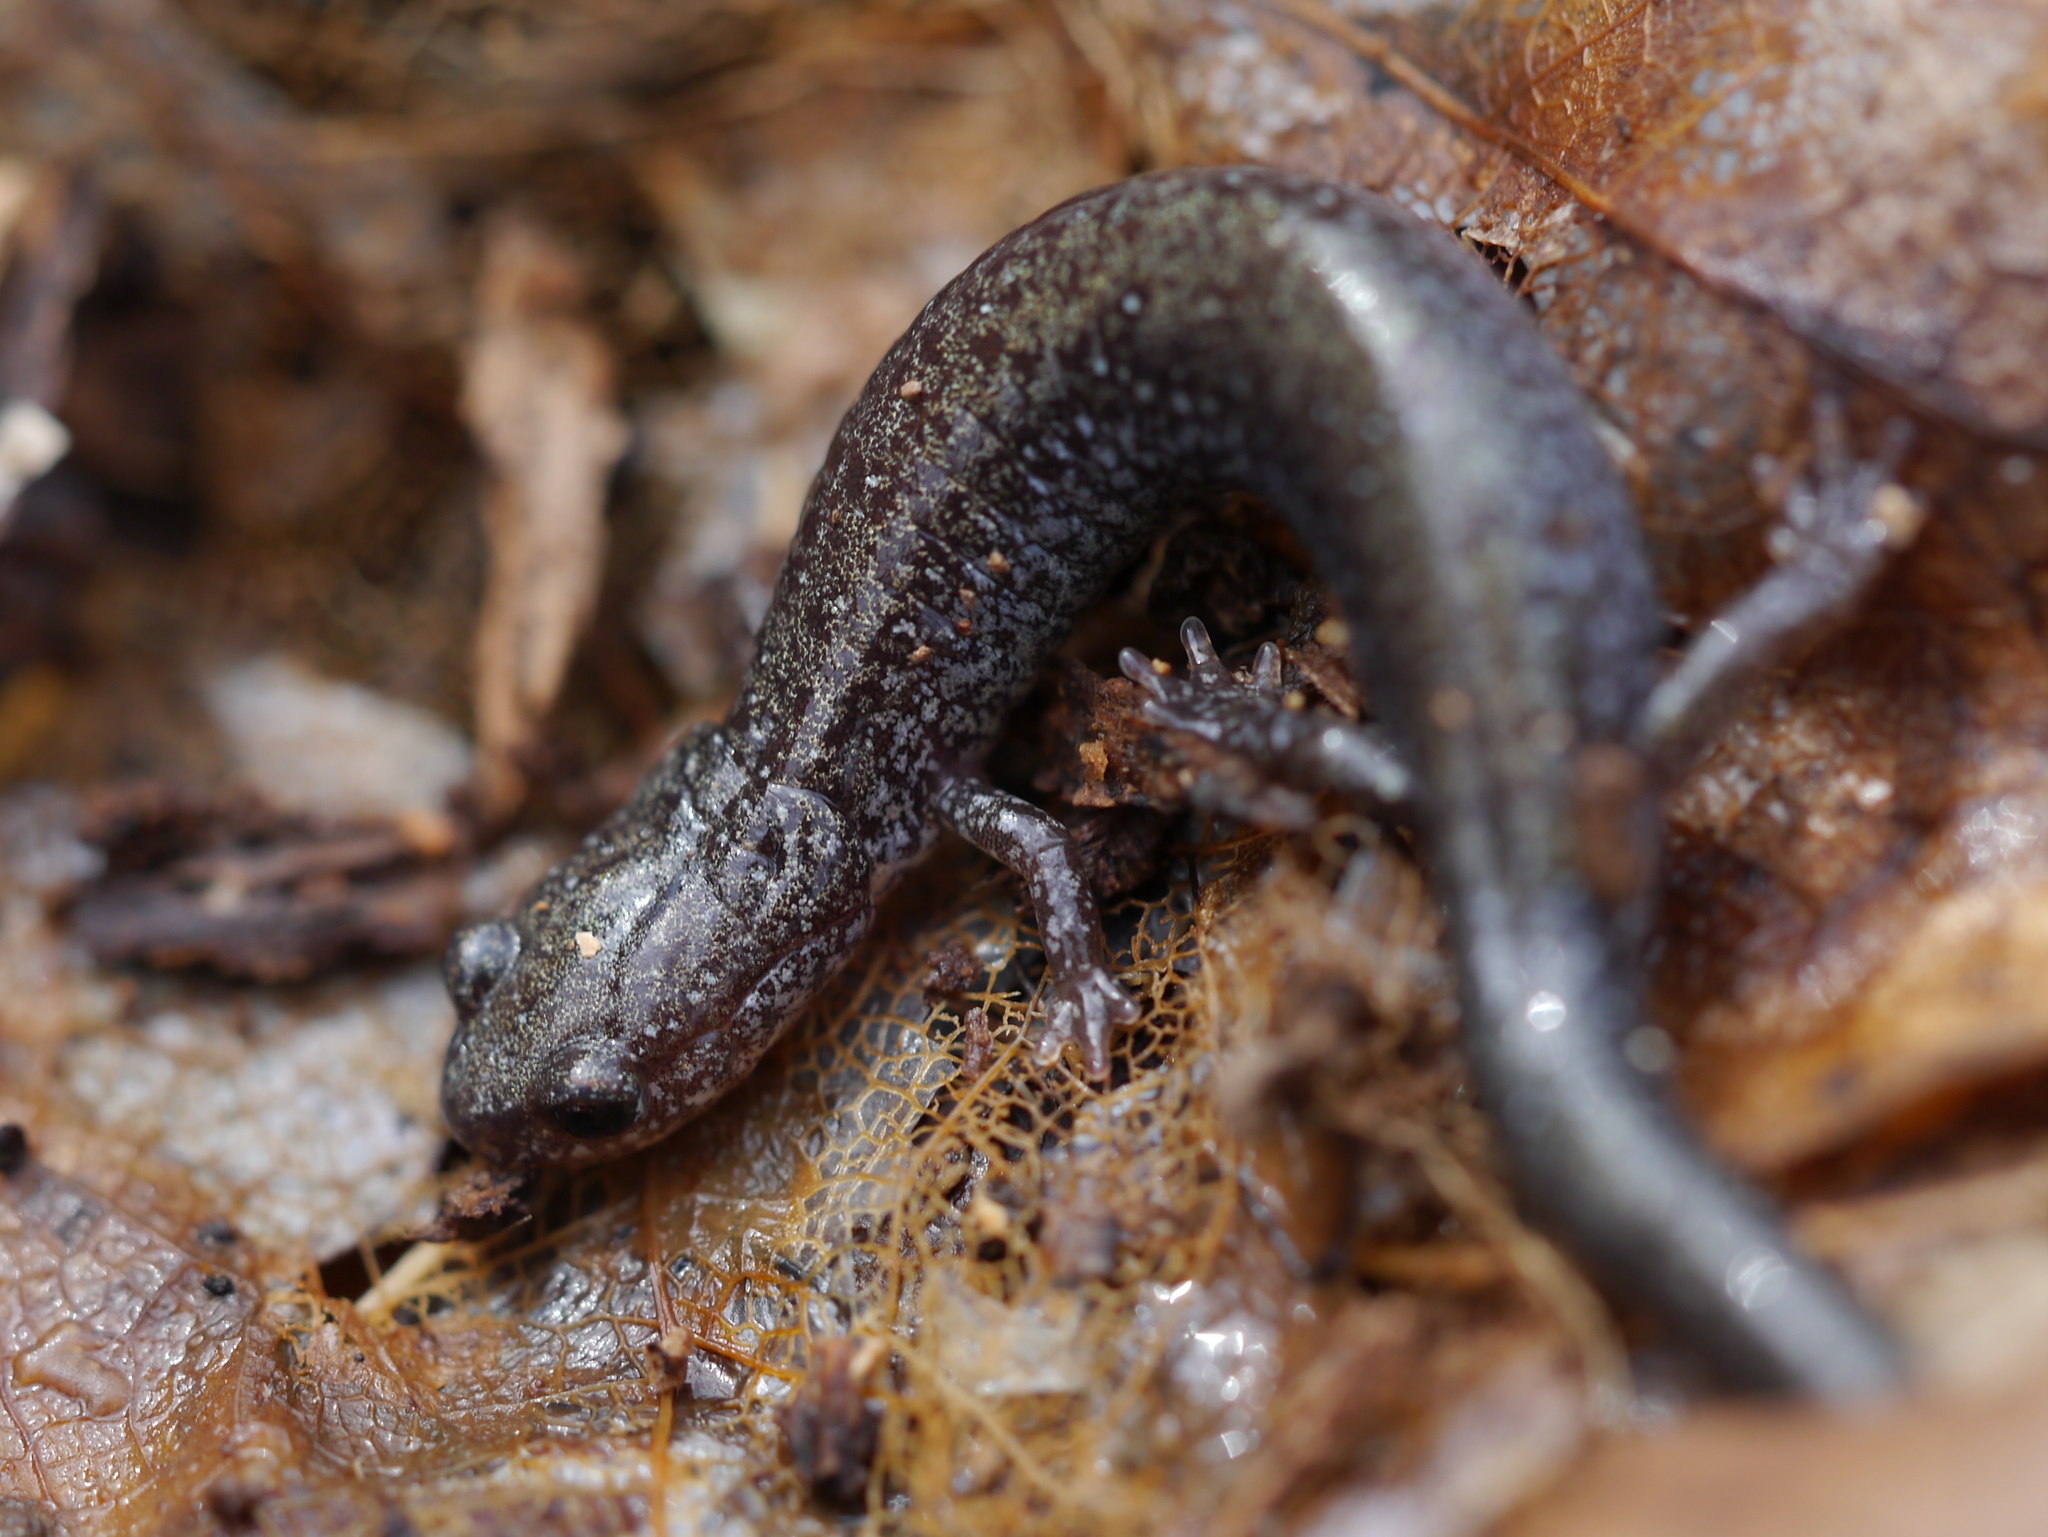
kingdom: Animalia
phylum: Chordata
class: Amphibia
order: Caudata
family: Plethodontidae
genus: Plethodon
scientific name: Plethodon cinereus
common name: Redback salamander
